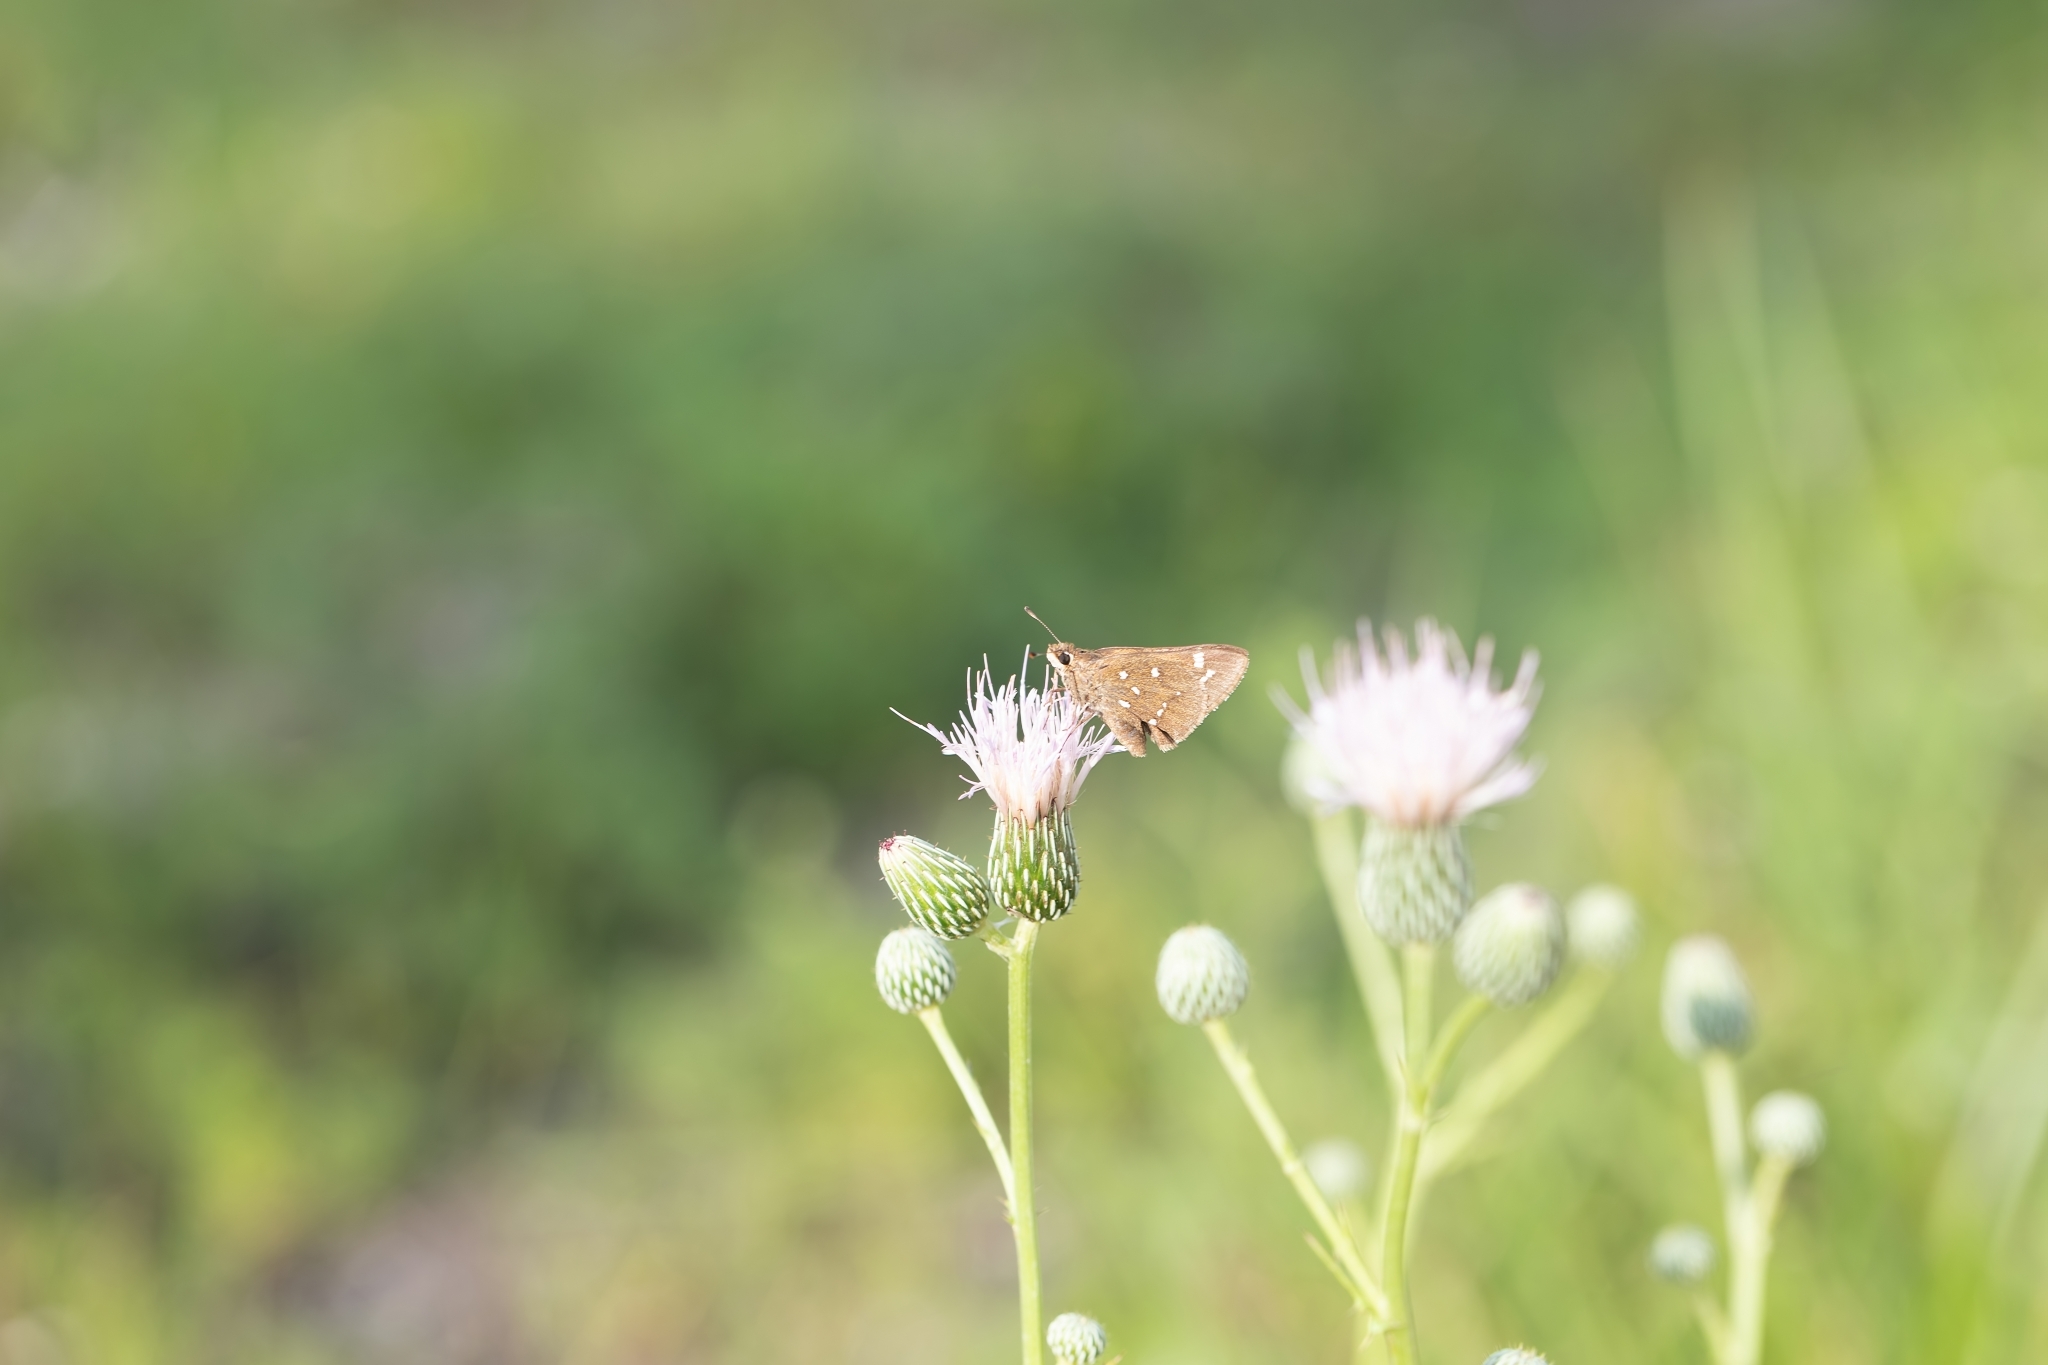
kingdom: Animalia
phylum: Arthropoda
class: Insecta
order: Lepidoptera
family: Hesperiidae
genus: Atrytonopsis
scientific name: Atrytonopsis loammi
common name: Loammi skipper
